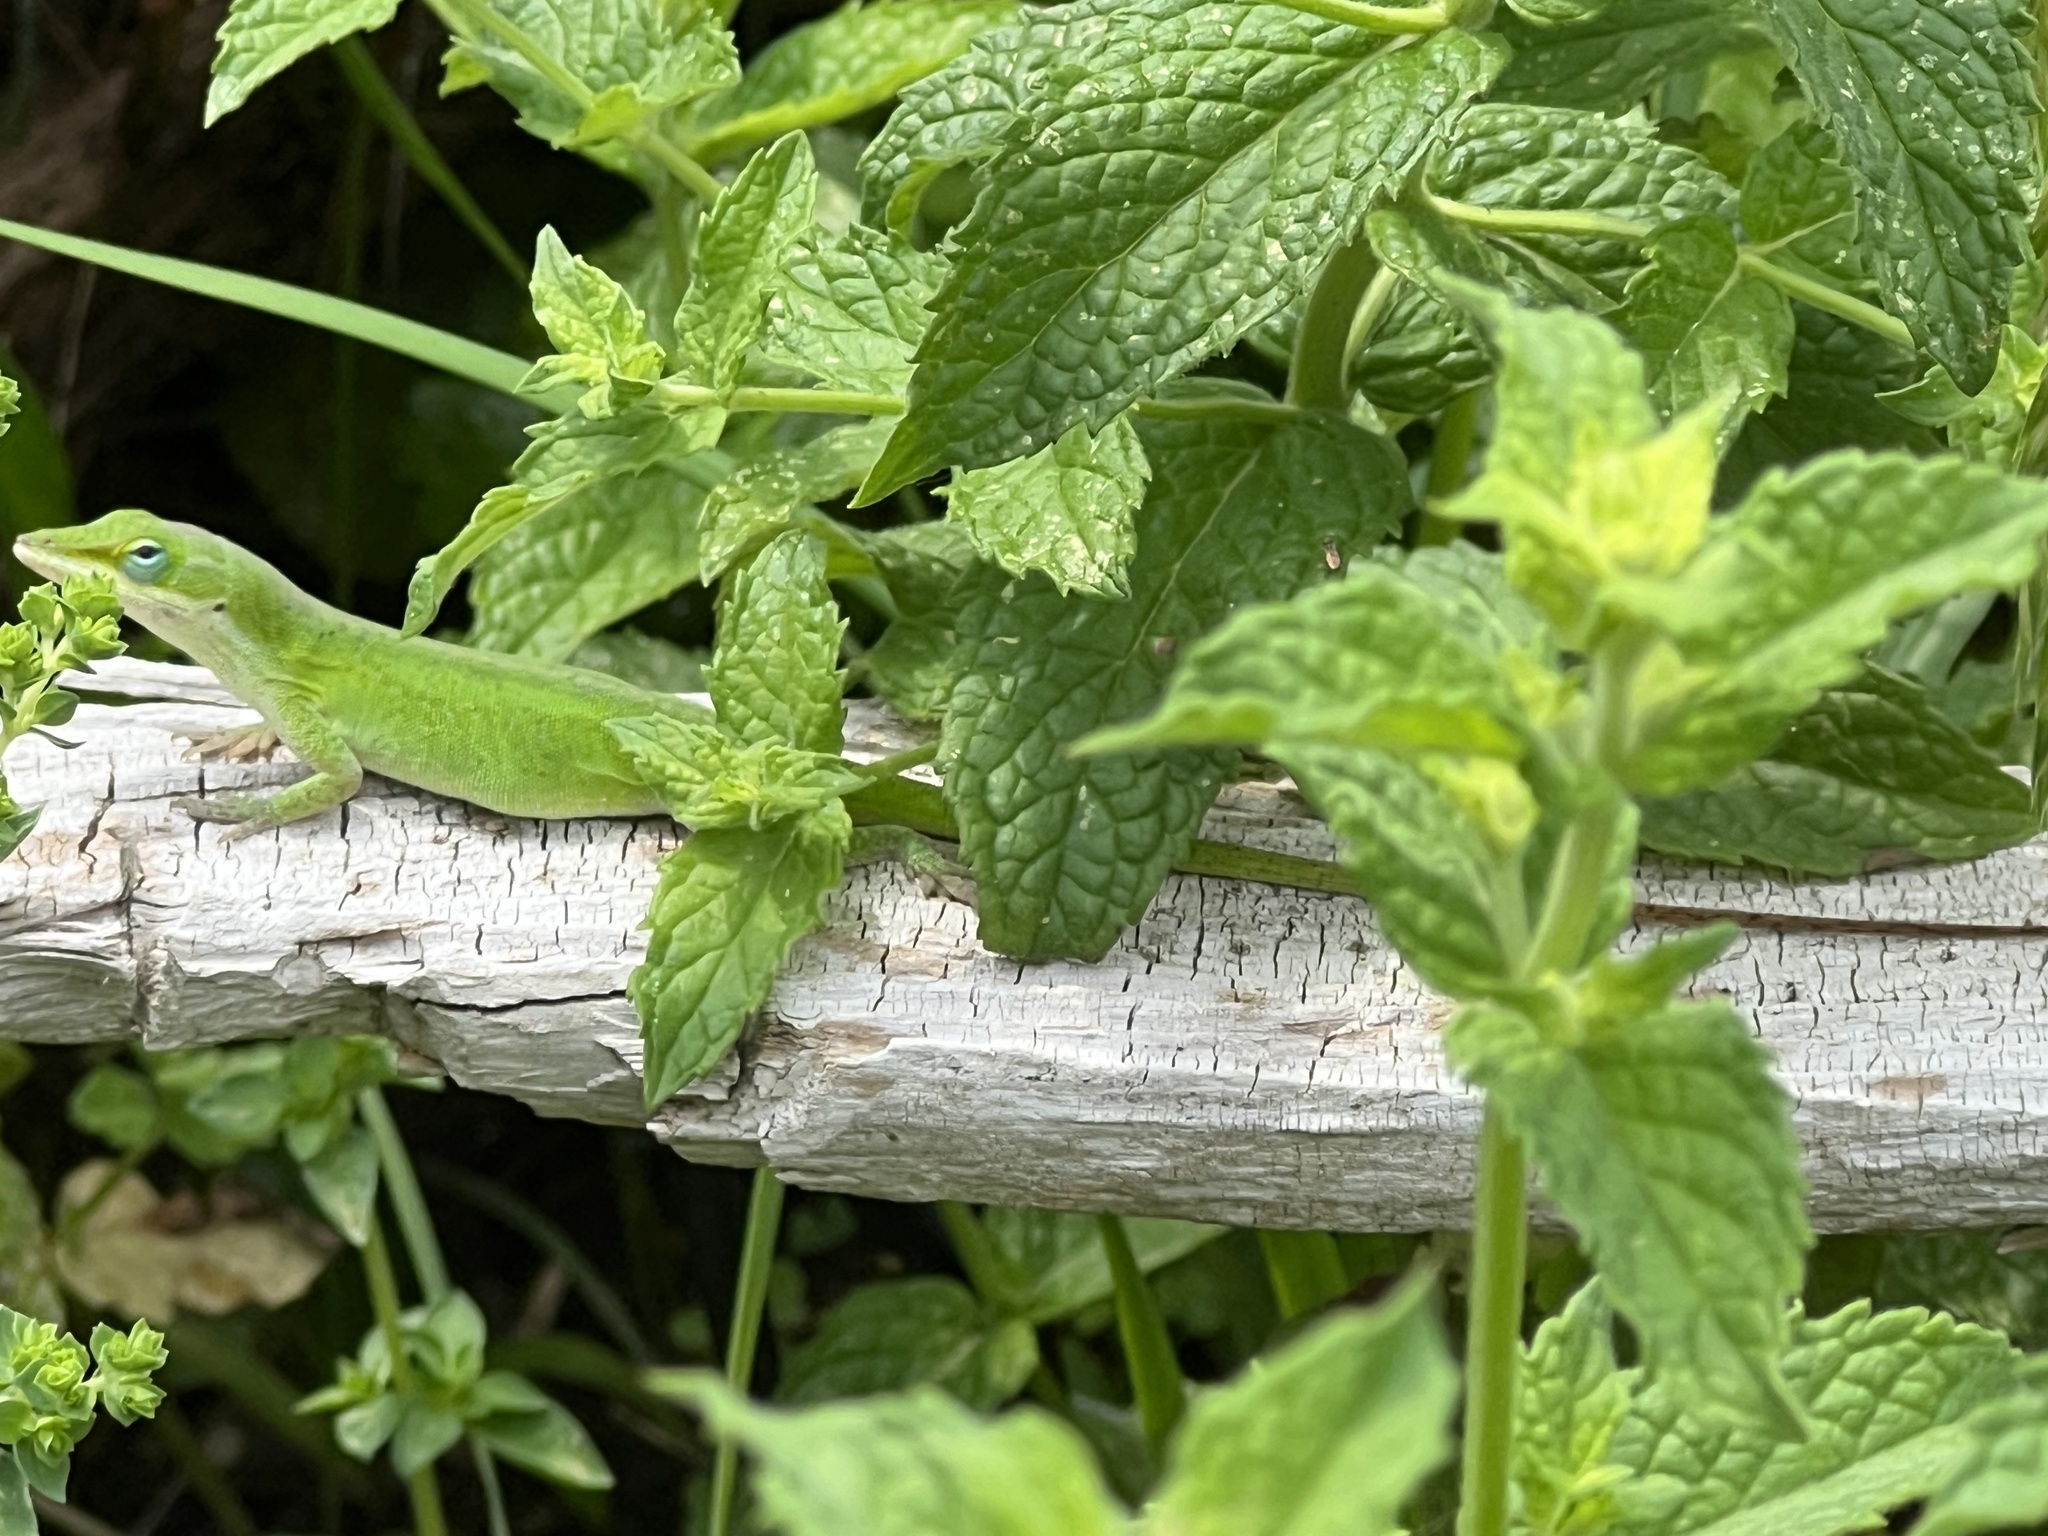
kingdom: Animalia
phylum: Chordata
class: Squamata
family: Dactyloidae
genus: Anolis
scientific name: Anolis carolinensis
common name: Green anole
